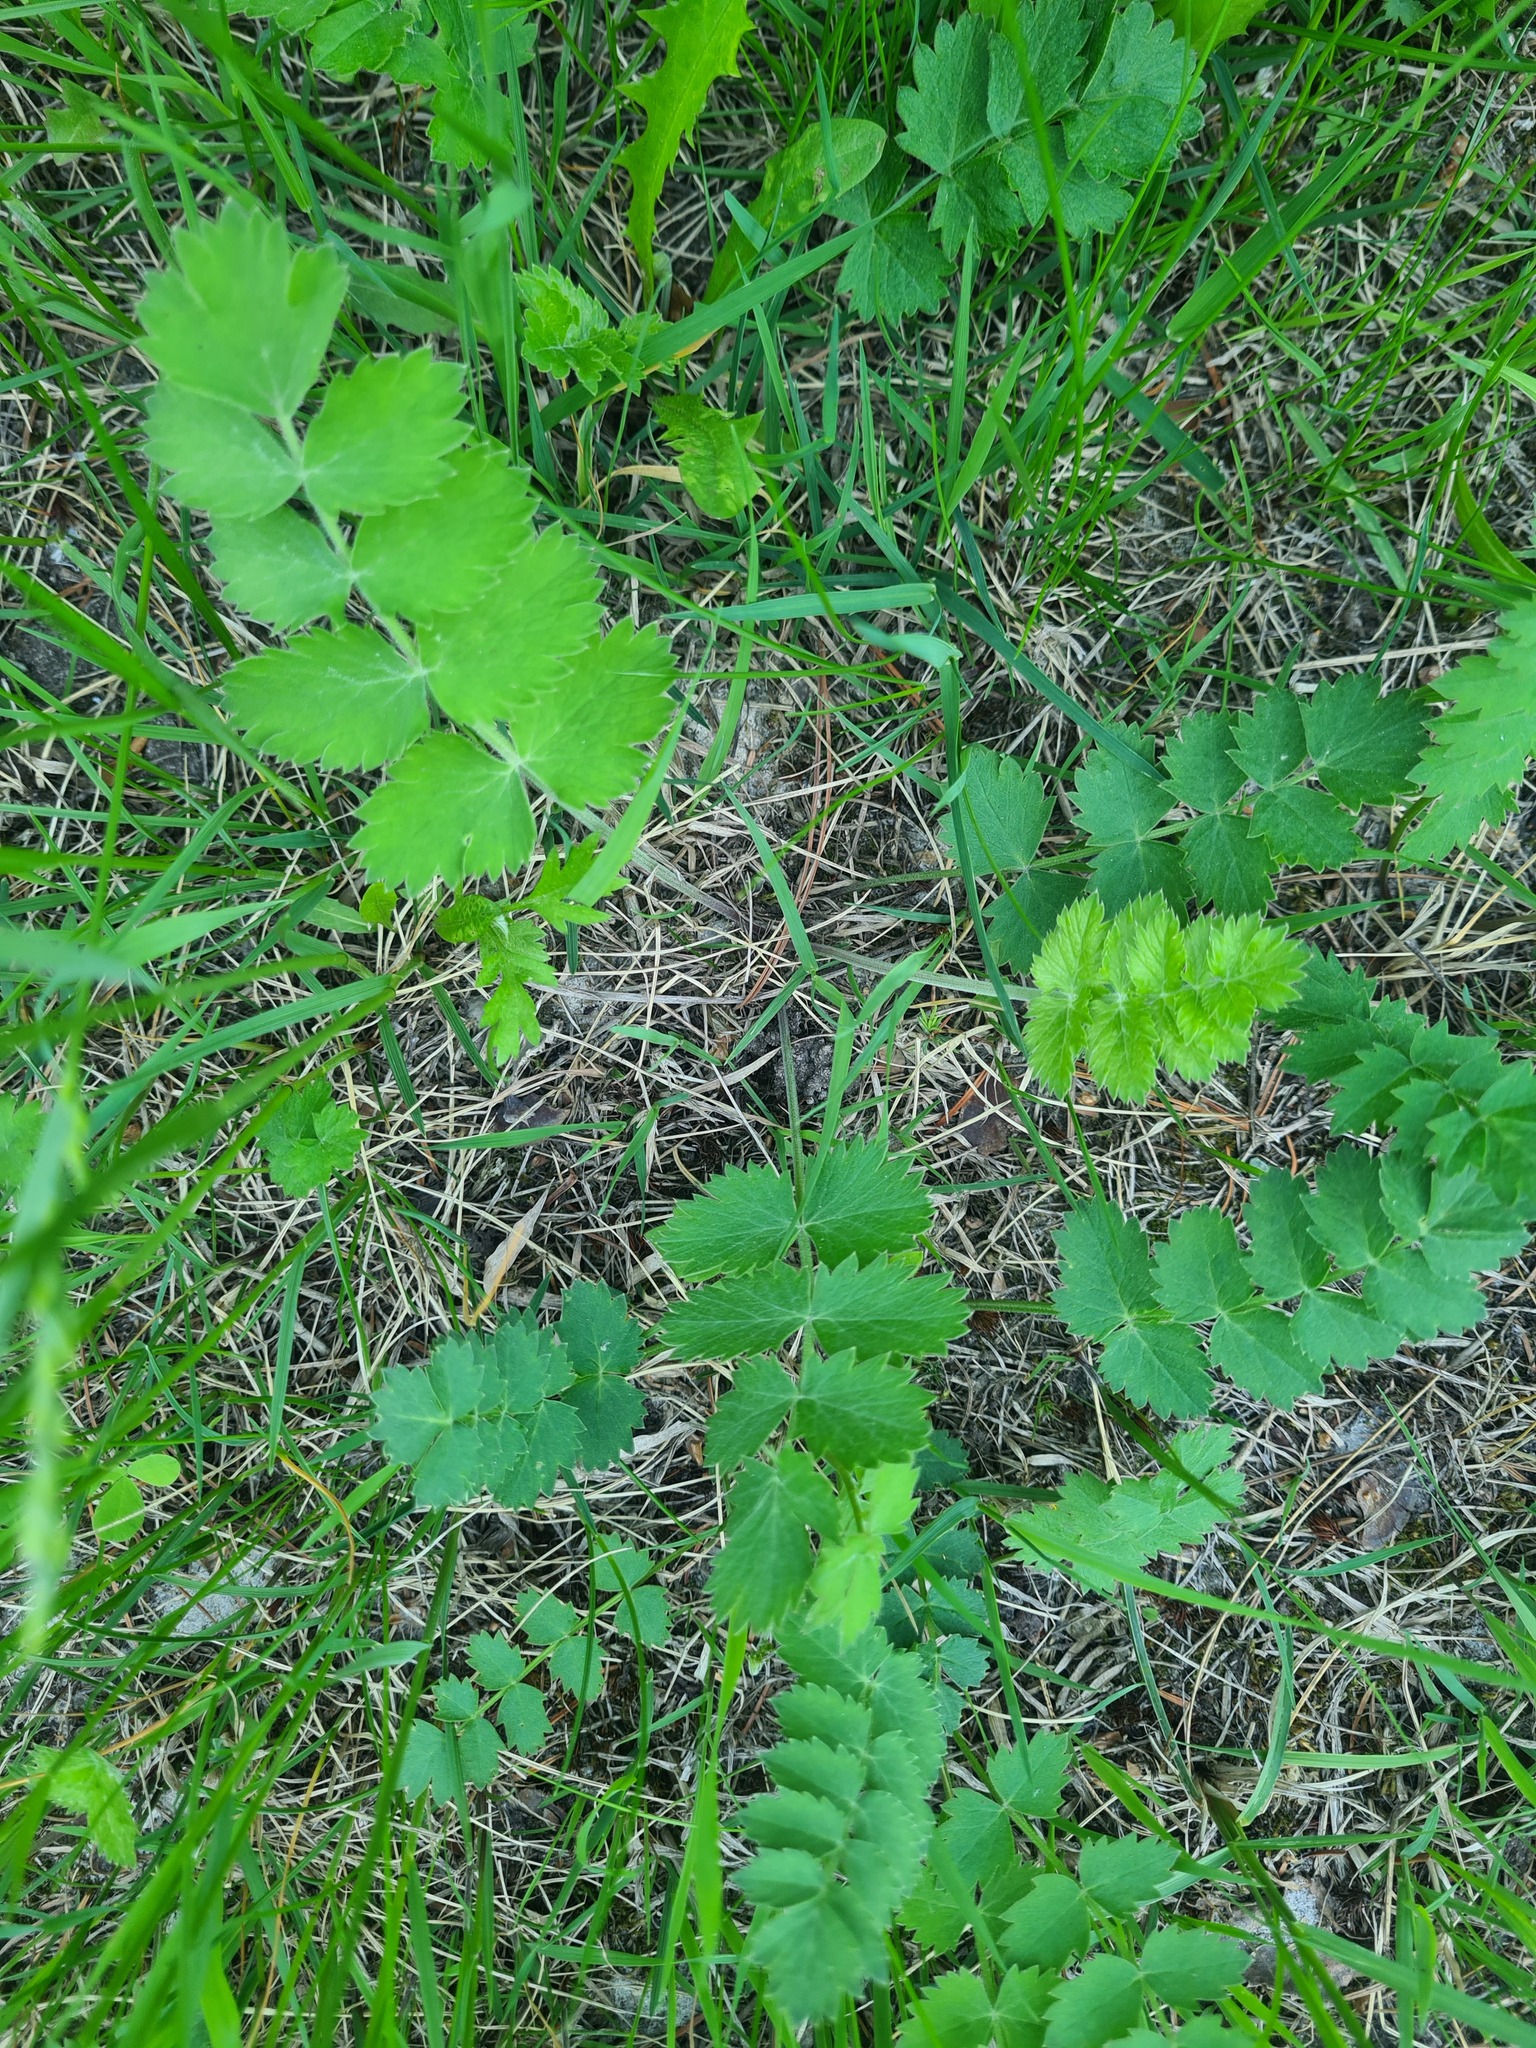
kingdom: Plantae
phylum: Tracheophyta
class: Magnoliopsida
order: Apiales
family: Apiaceae
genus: Pimpinella
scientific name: Pimpinella saxifraga
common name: Burnet-saxifrage
